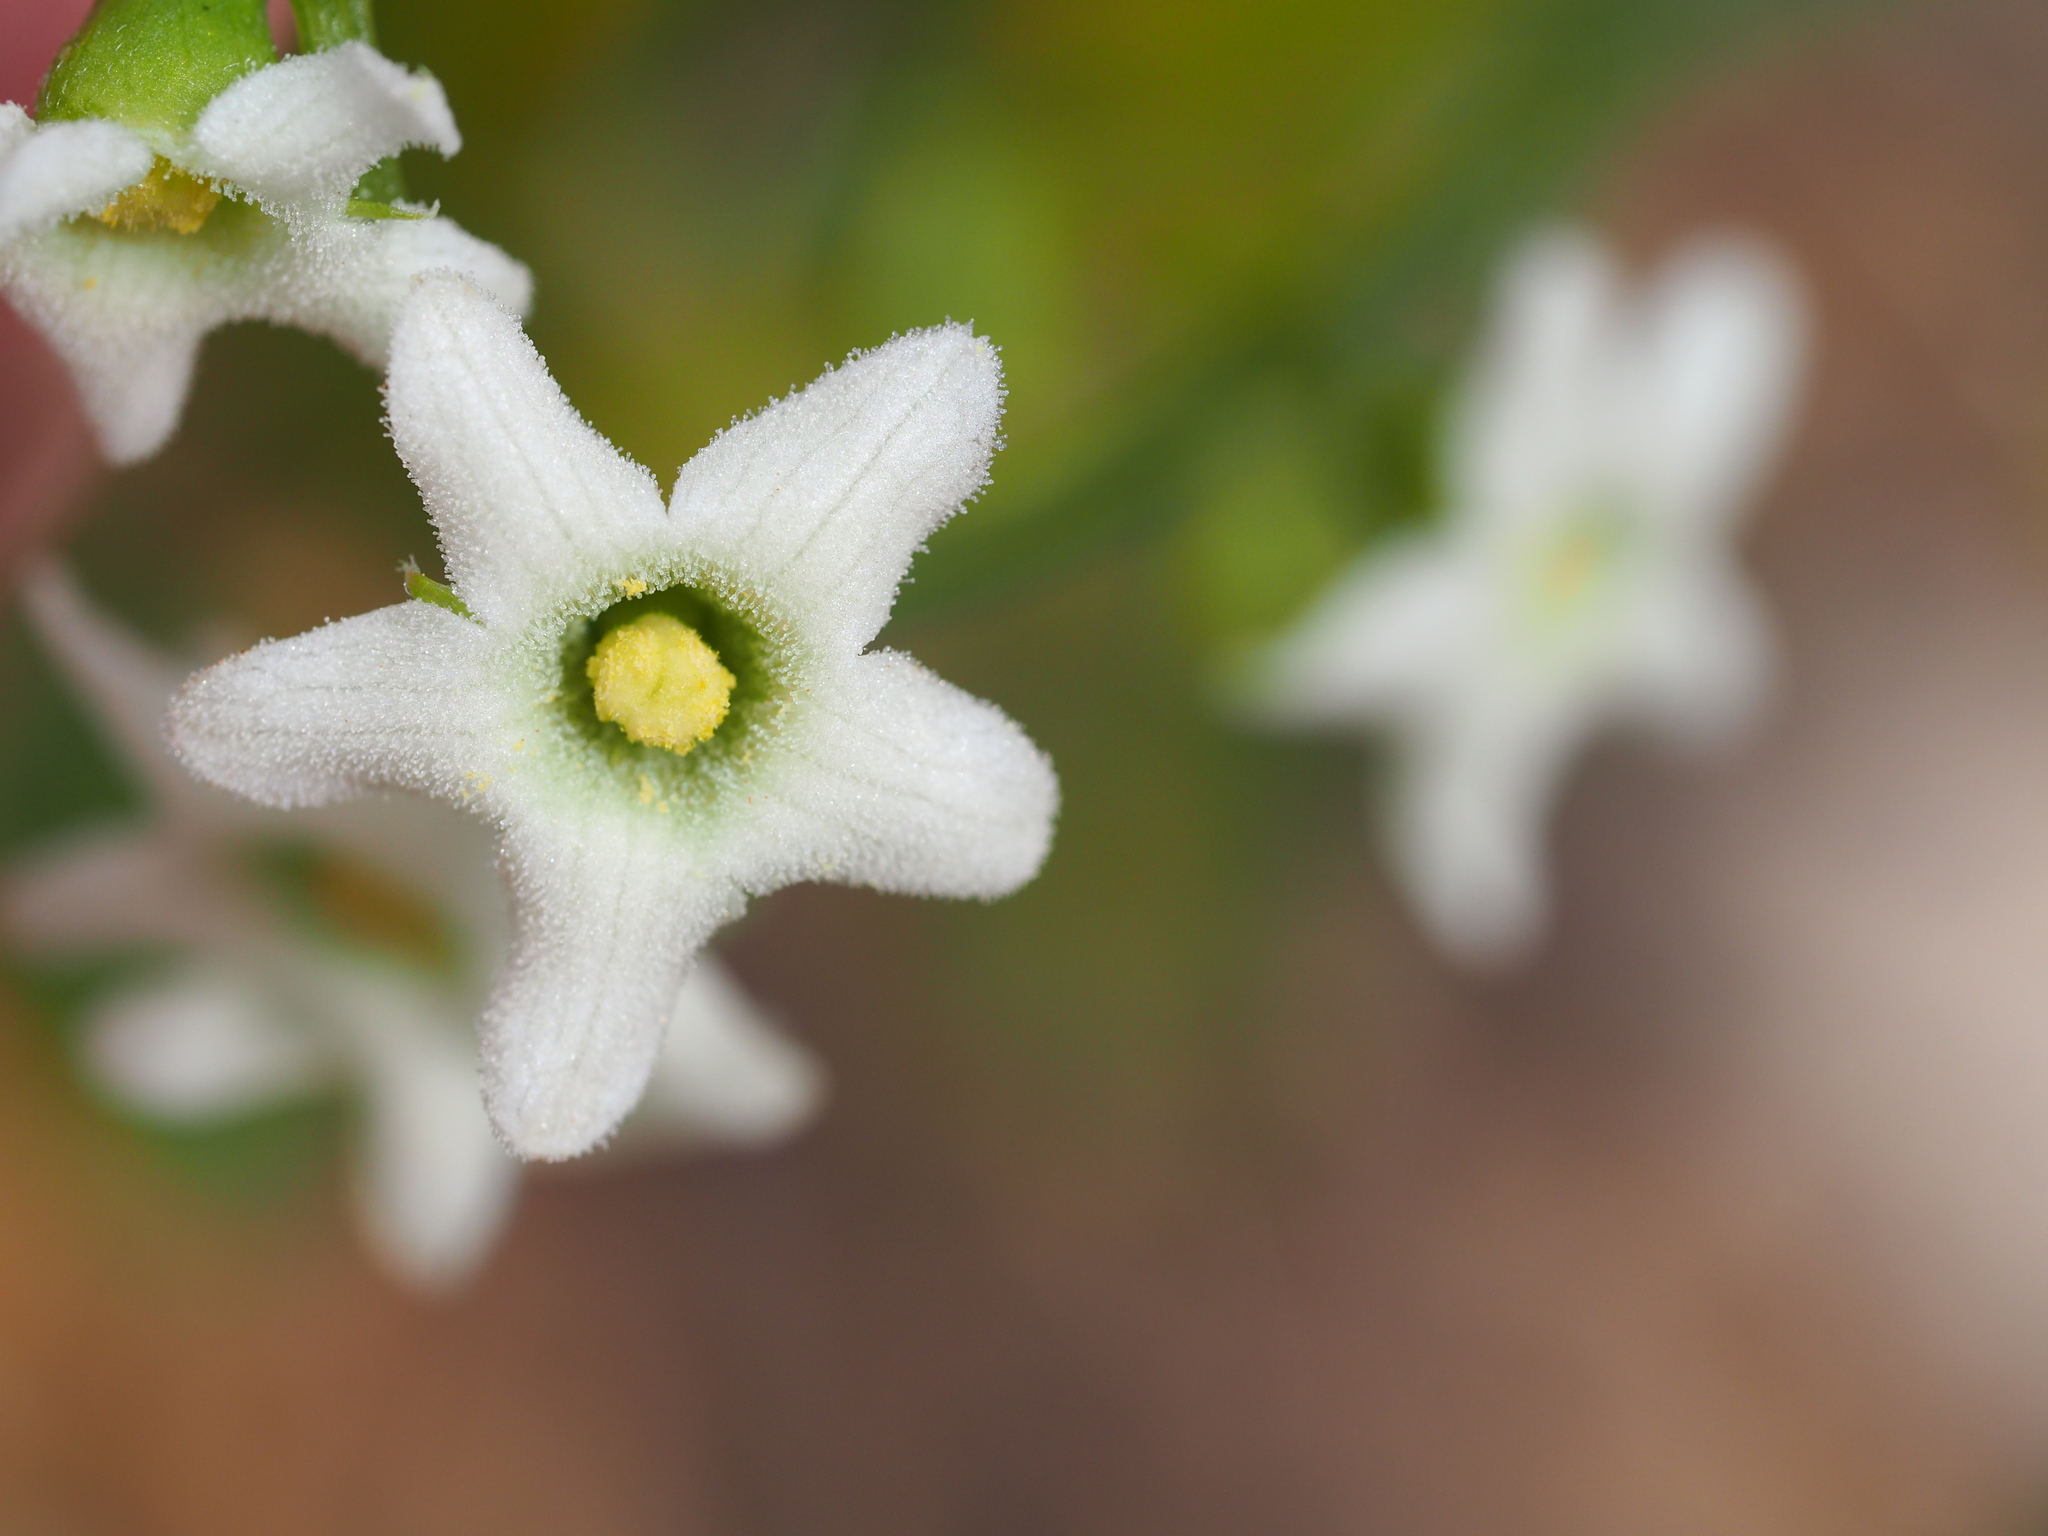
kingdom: Plantae
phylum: Tracheophyta
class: Magnoliopsida
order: Cucurbitales
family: Cucurbitaceae
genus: Marah
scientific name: Marah horrida
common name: Sierra manroot
